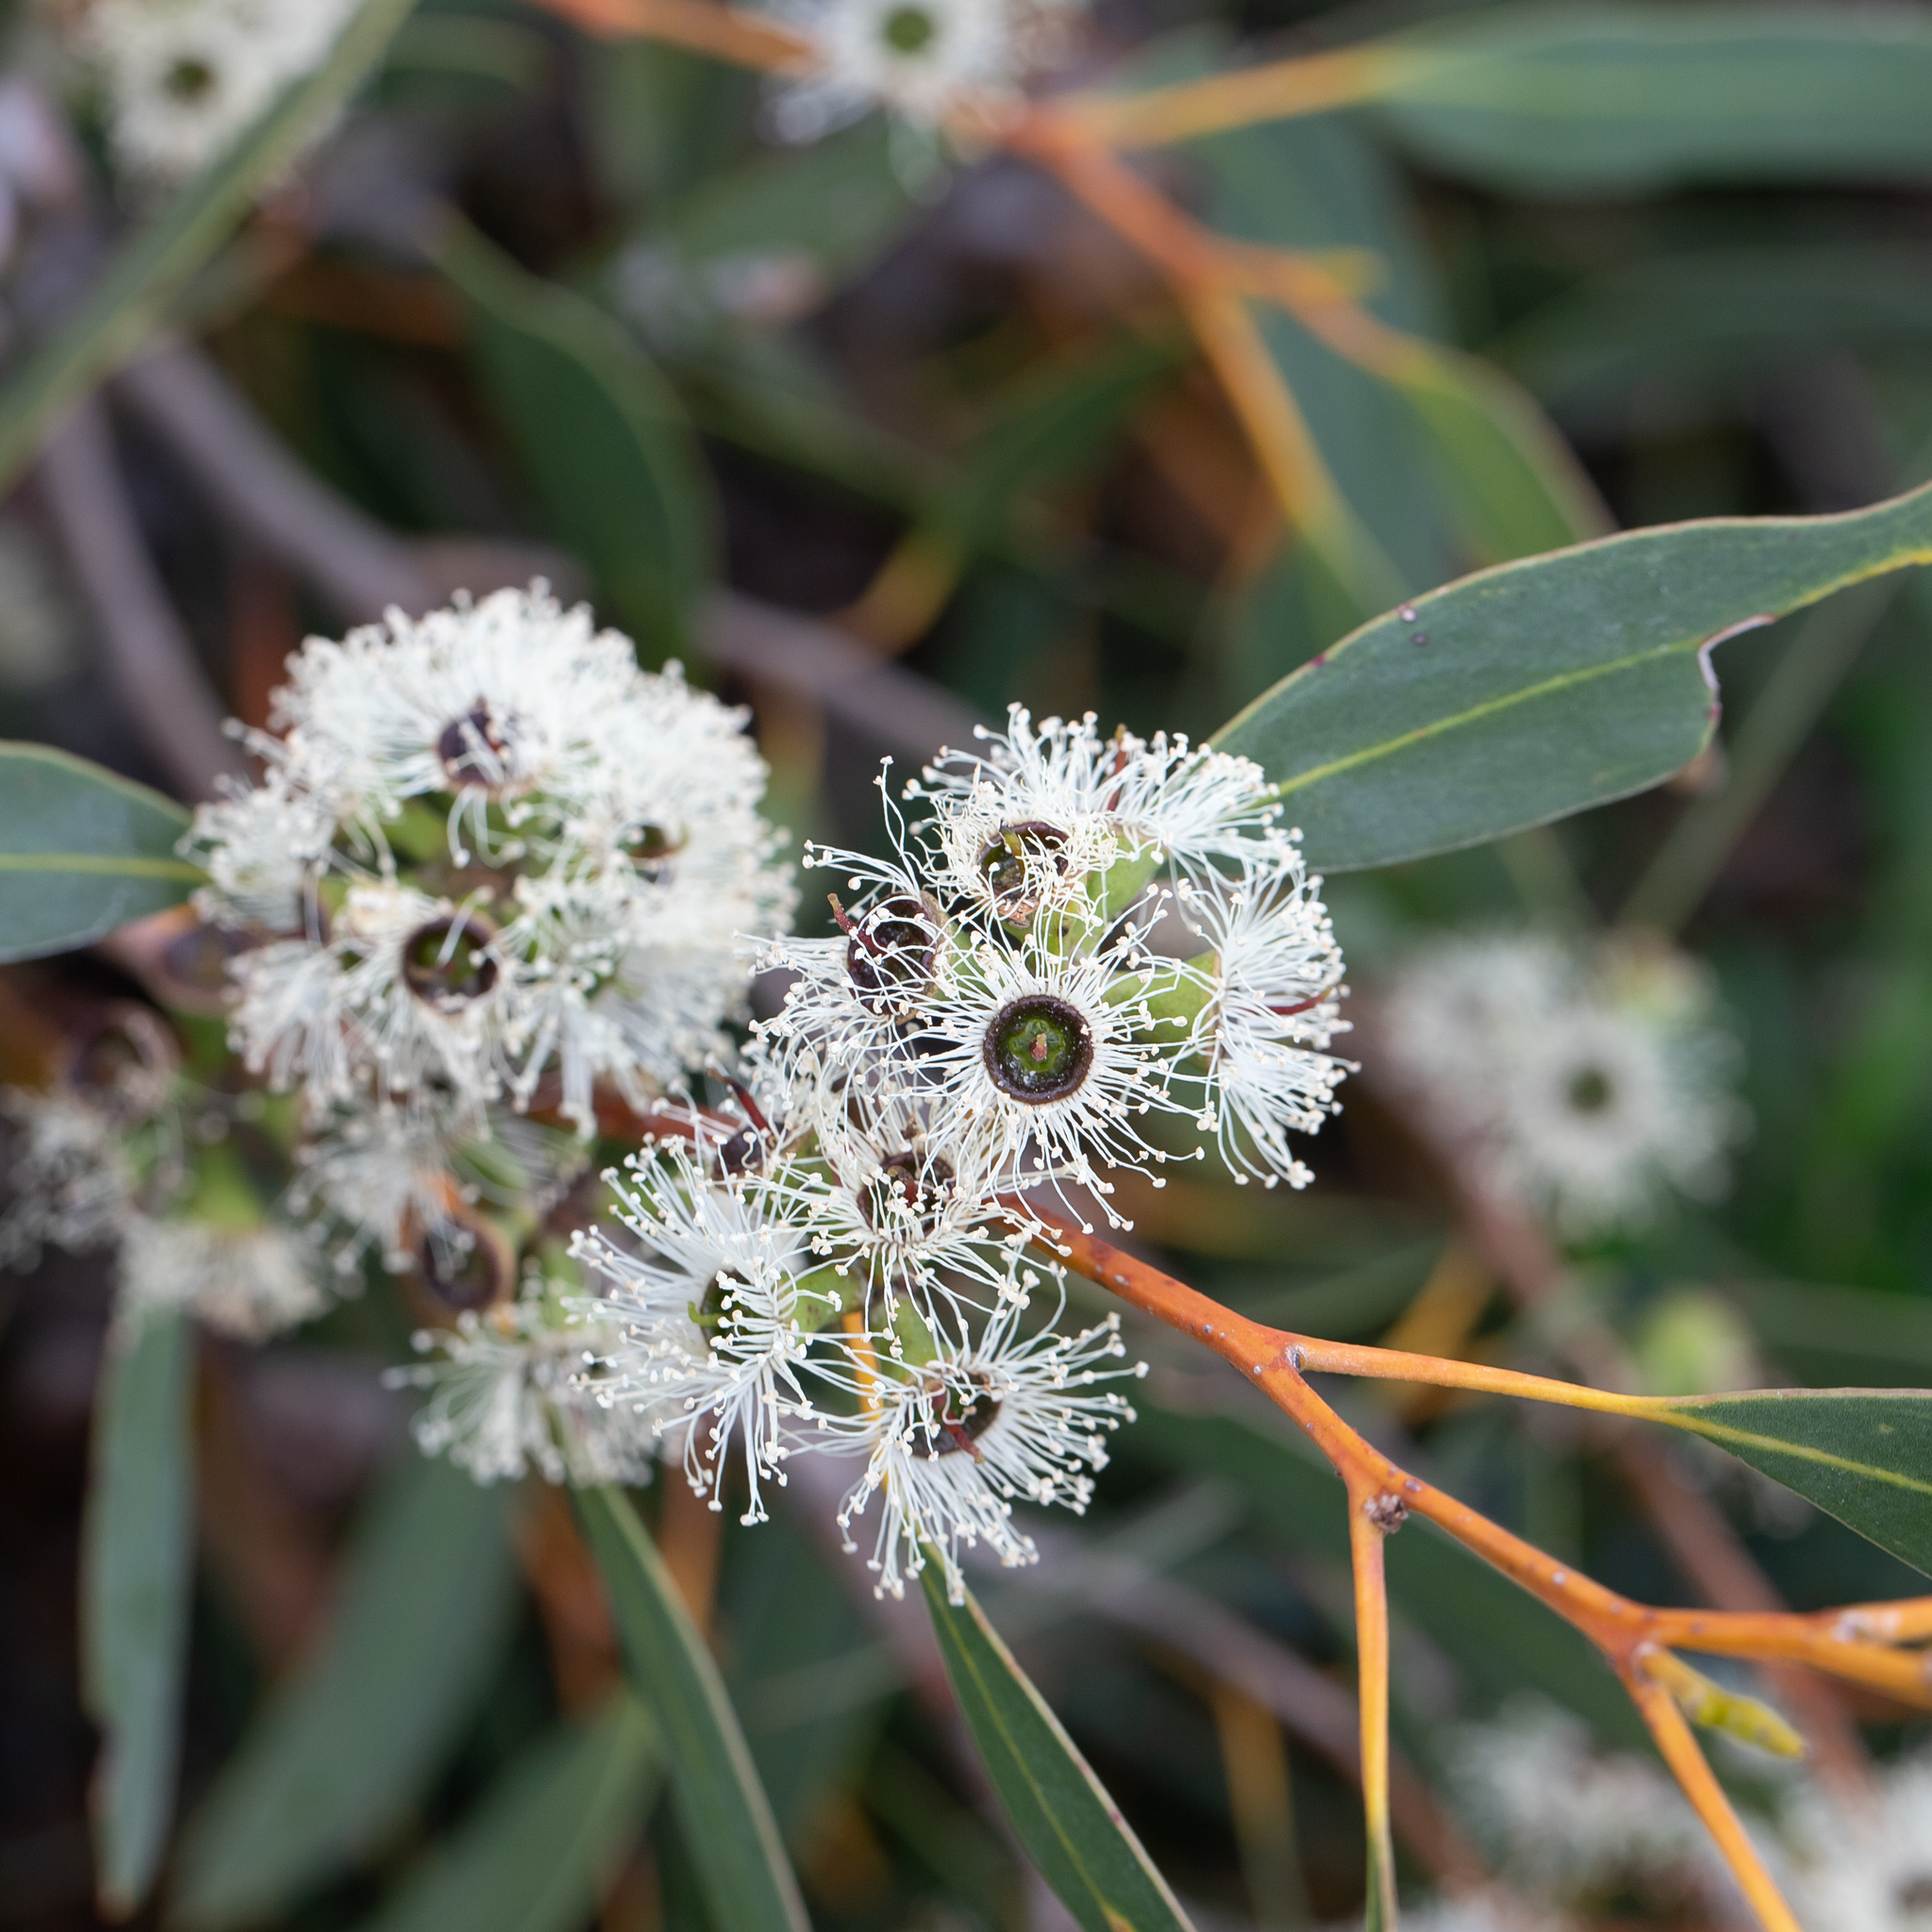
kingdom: Plantae
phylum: Tracheophyta
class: Magnoliopsida
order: Myrtales
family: Myrtaceae
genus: Eucalyptus
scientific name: Eucalyptus diversifolia
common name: Coastal white mallee
